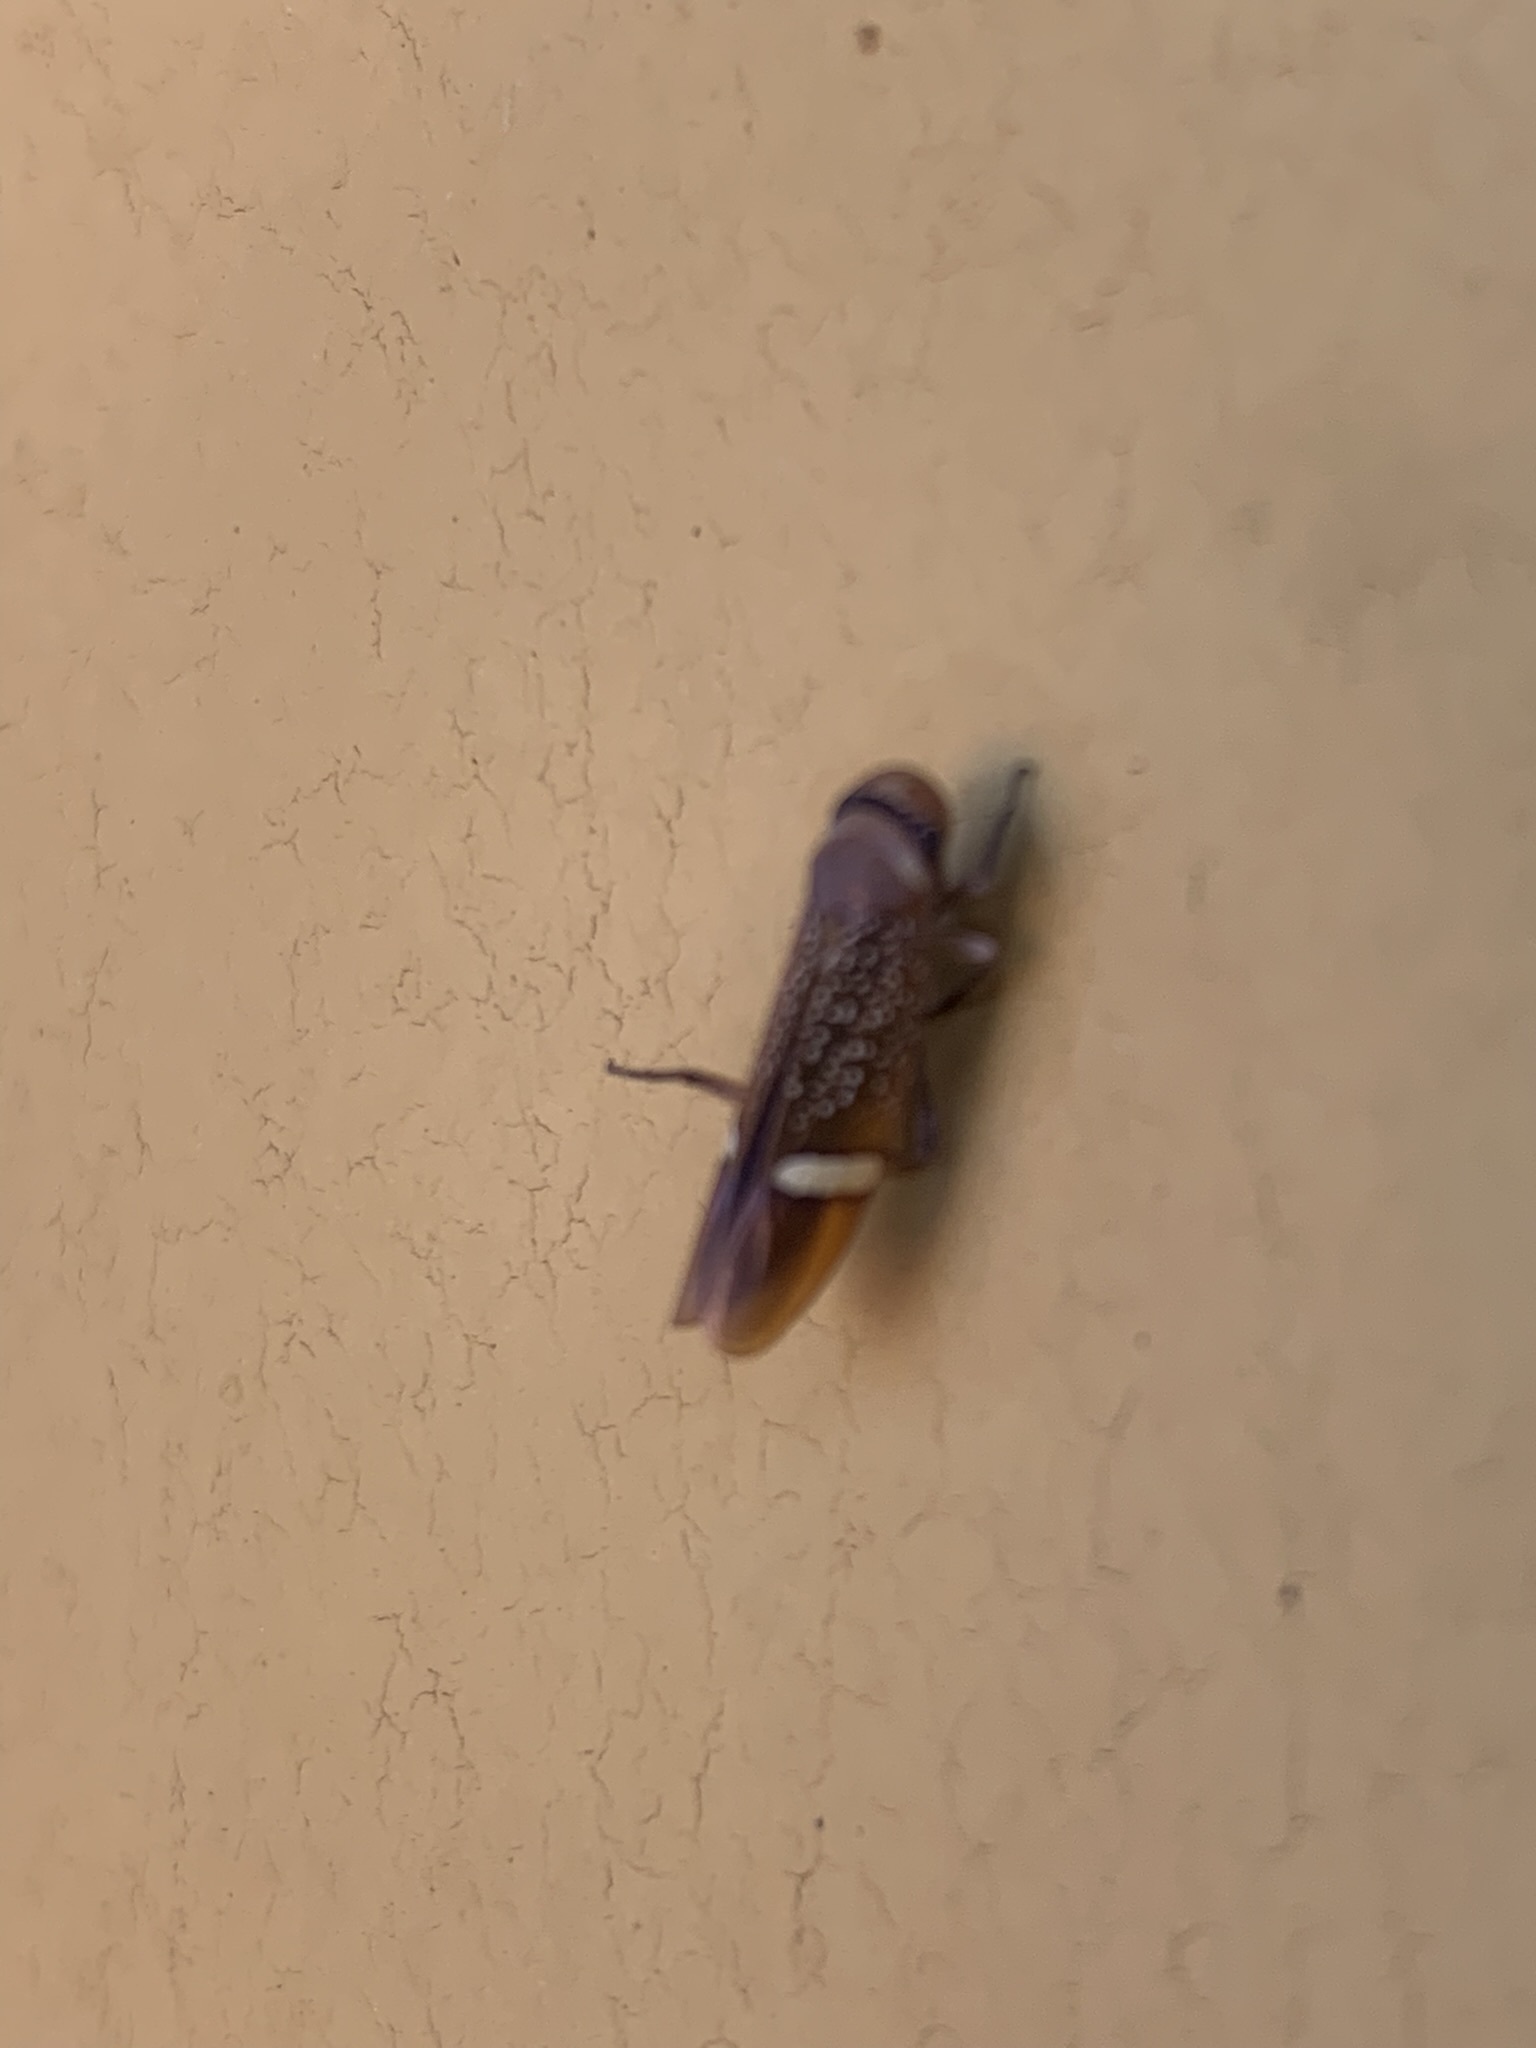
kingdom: Animalia
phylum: Arthropoda
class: Insecta
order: Hemiptera
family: Cicadellidae
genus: Scoposcartula
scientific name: Scoposcartula limitata
